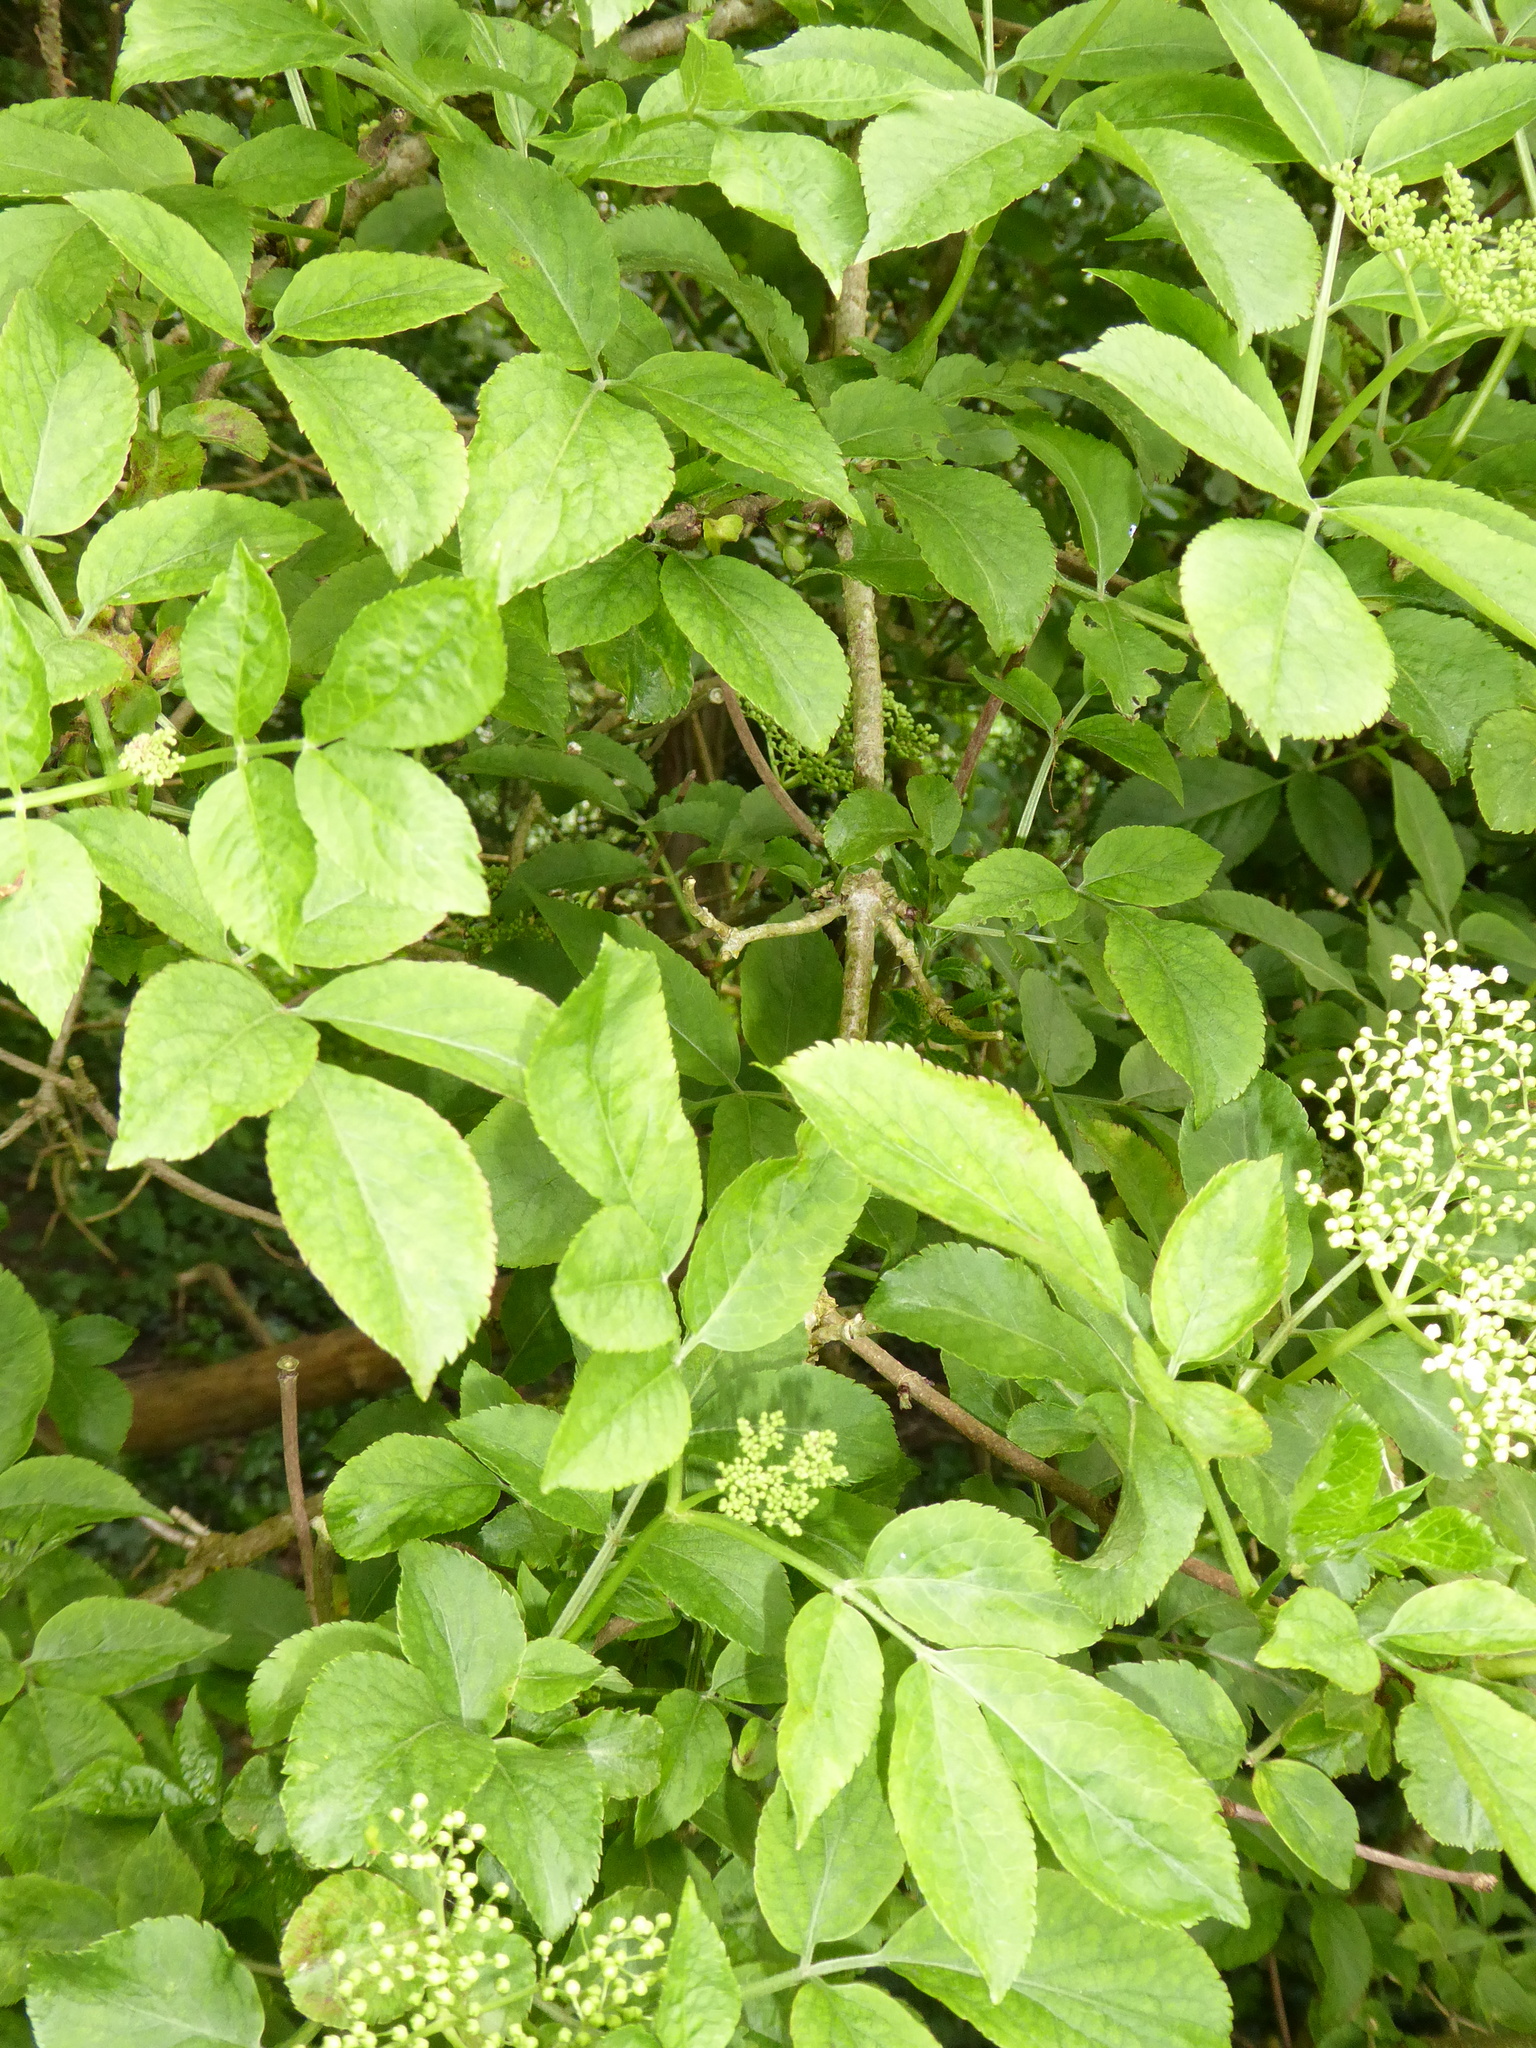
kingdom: Plantae
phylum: Tracheophyta
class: Magnoliopsida
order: Dipsacales
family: Viburnaceae
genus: Sambucus
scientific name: Sambucus nigra
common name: Elder
